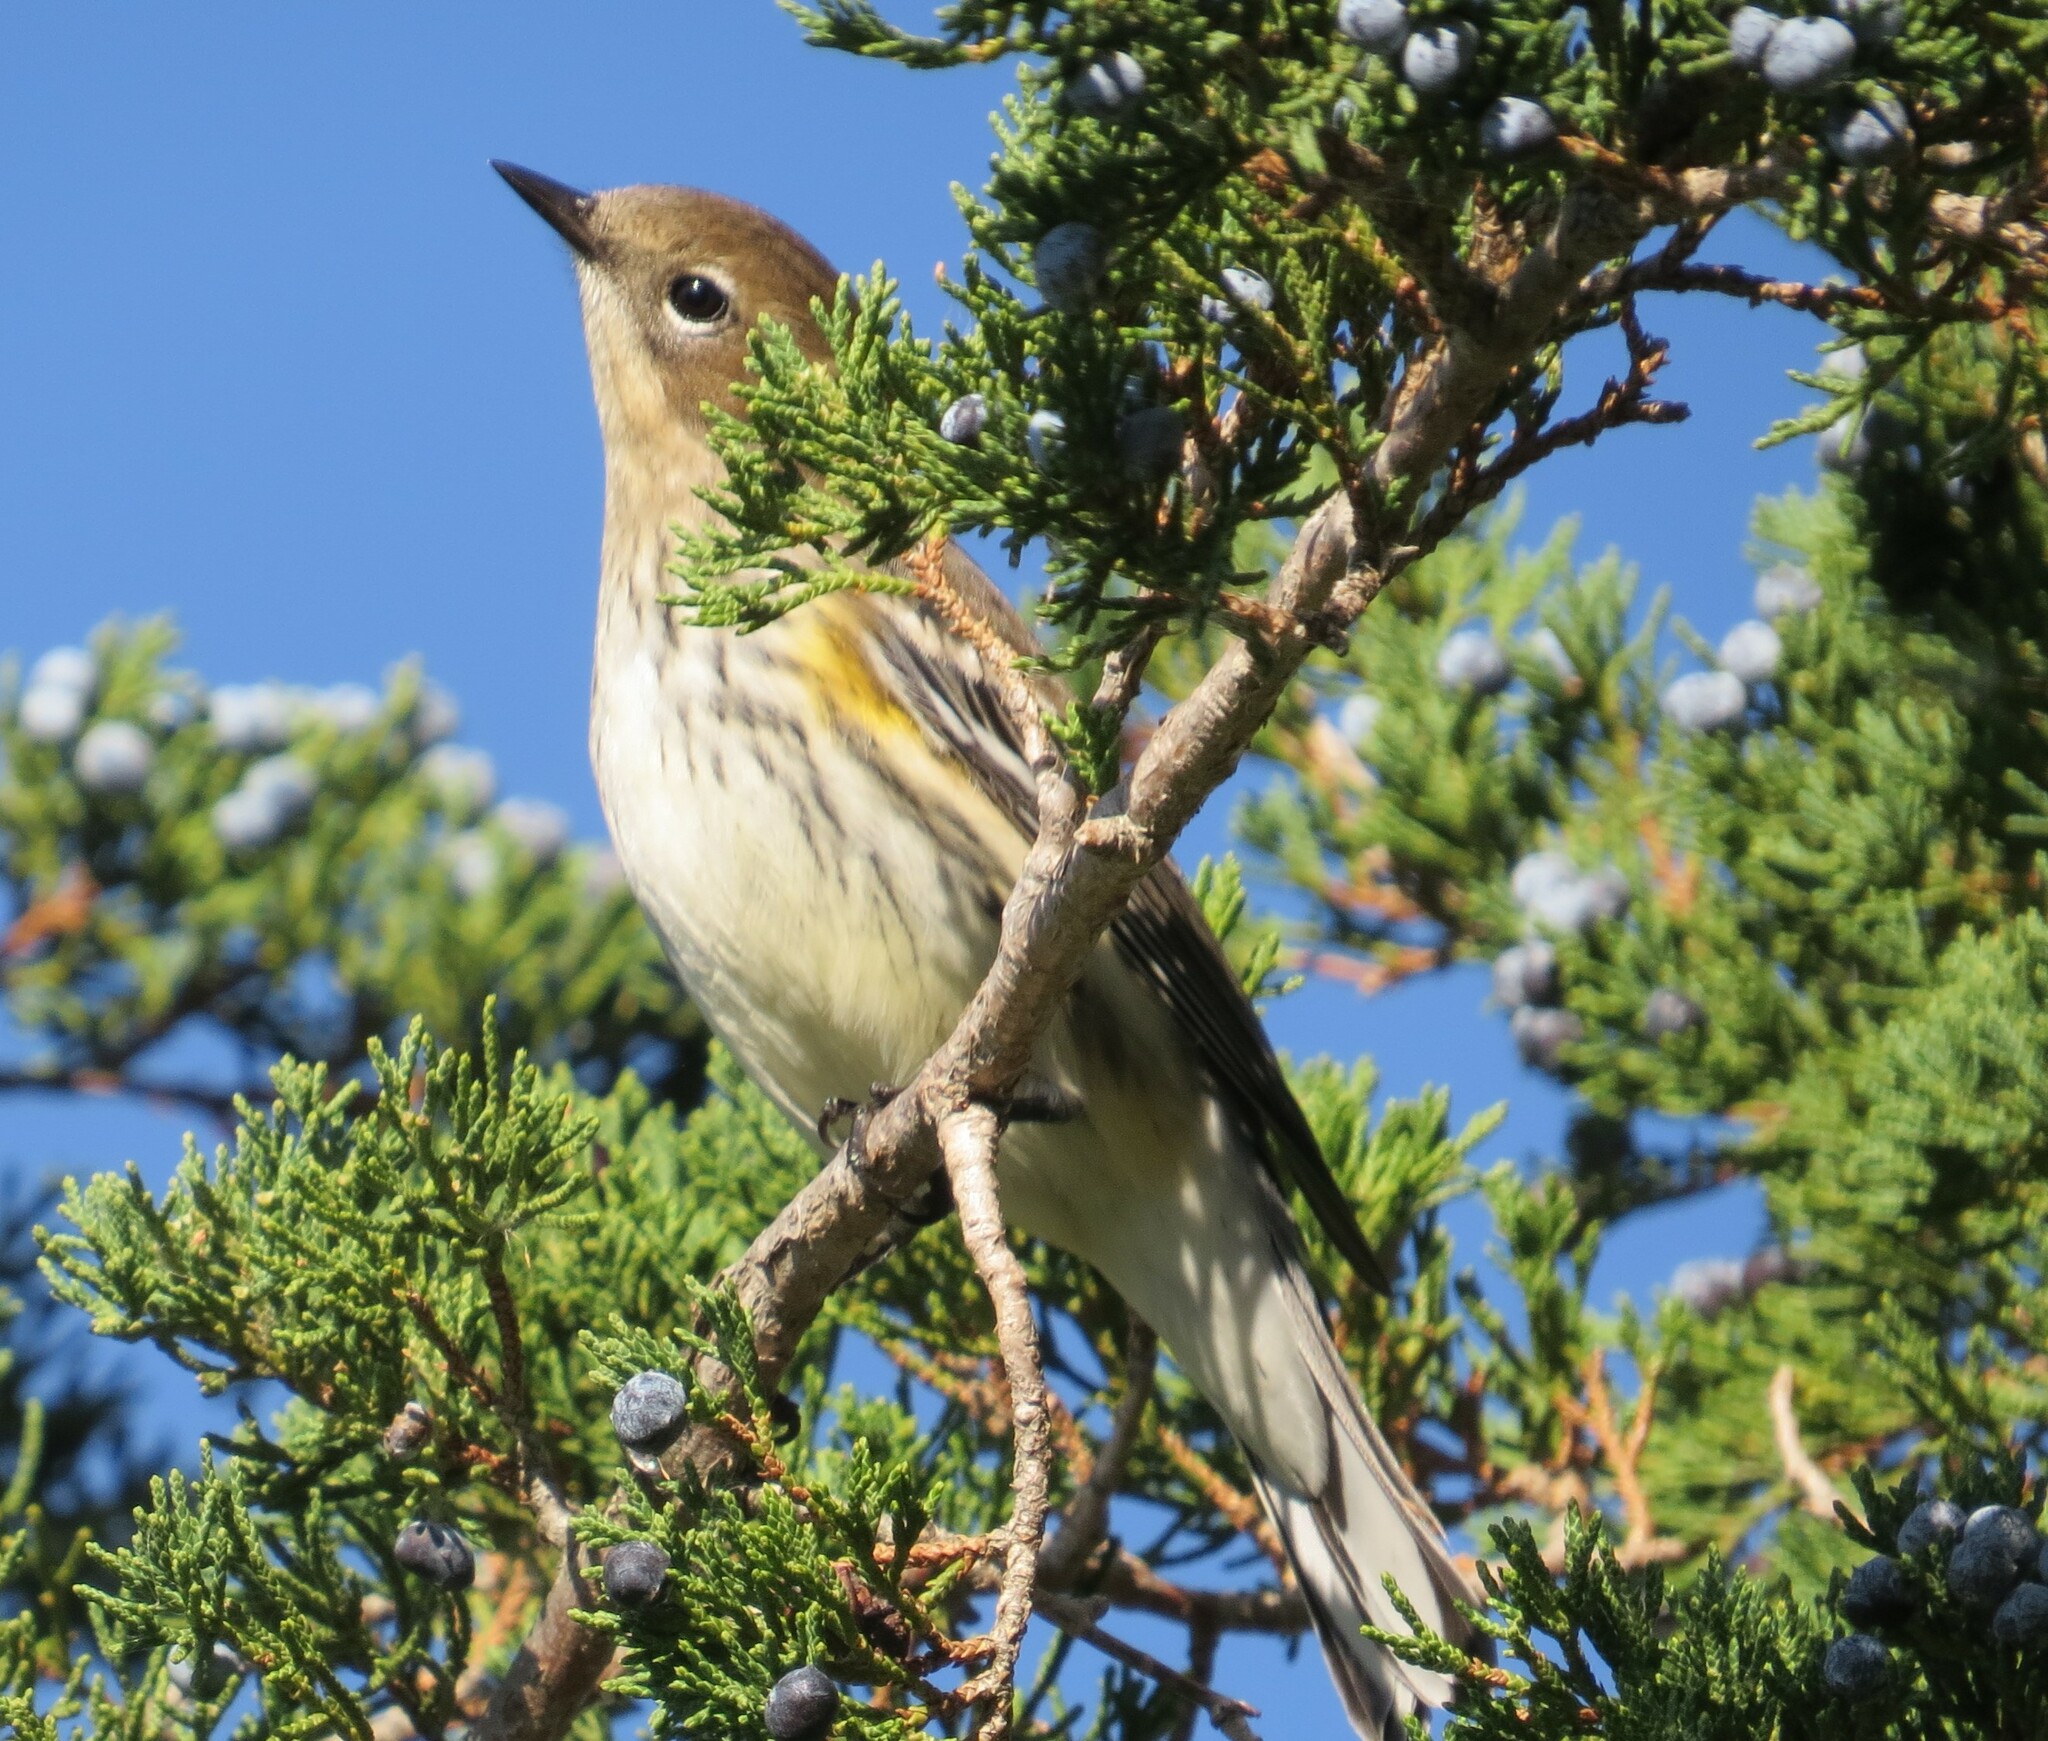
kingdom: Animalia
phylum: Chordata
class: Aves
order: Passeriformes
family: Parulidae
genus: Setophaga
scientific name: Setophaga coronata
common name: Myrtle warbler
